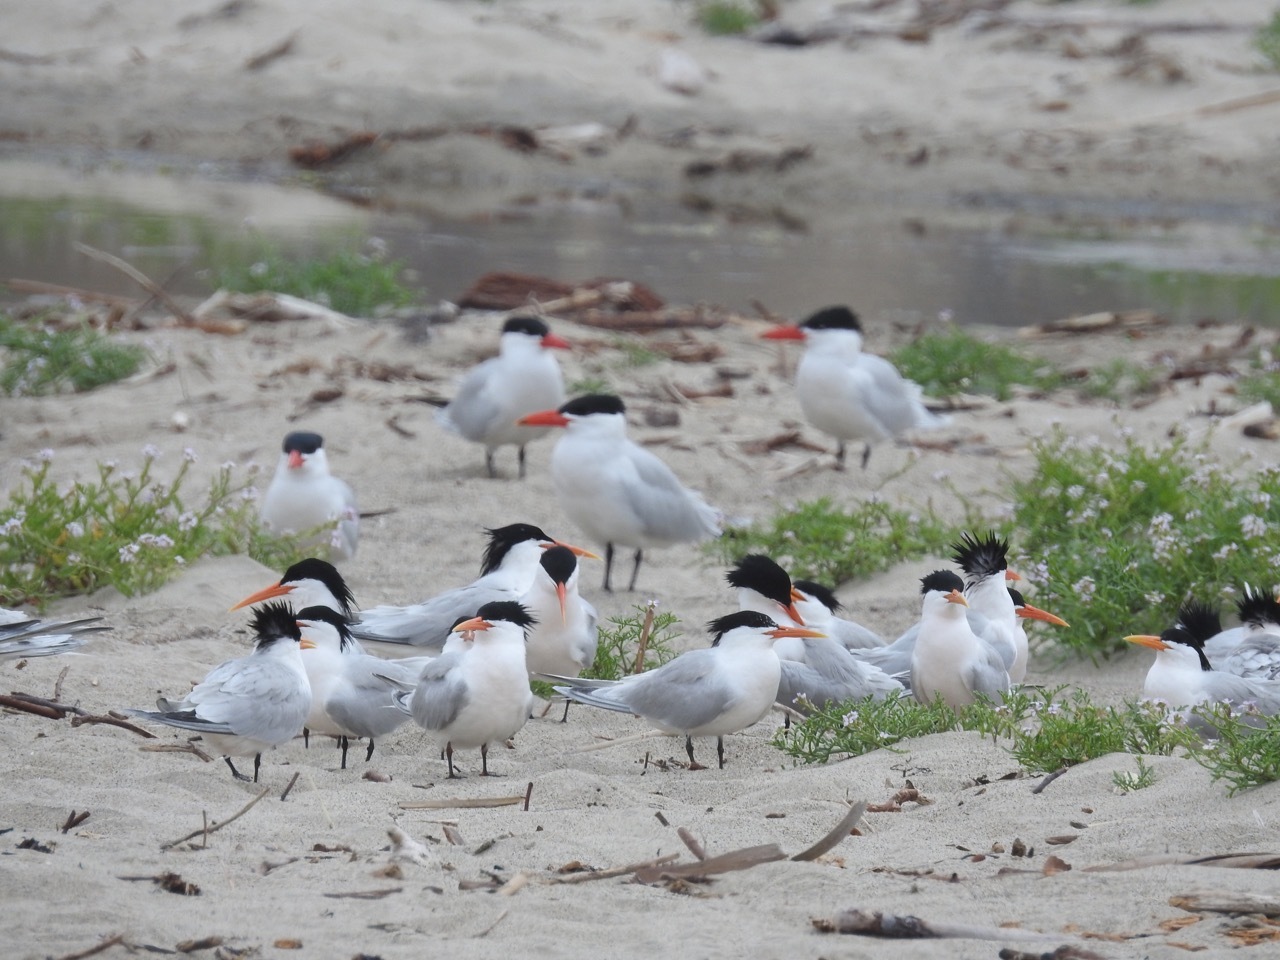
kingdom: Animalia
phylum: Chordata
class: Aves
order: Charadriiformes
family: Laridae
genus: Thalasseus
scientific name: Thalasseus elegans
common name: Elegant tern
